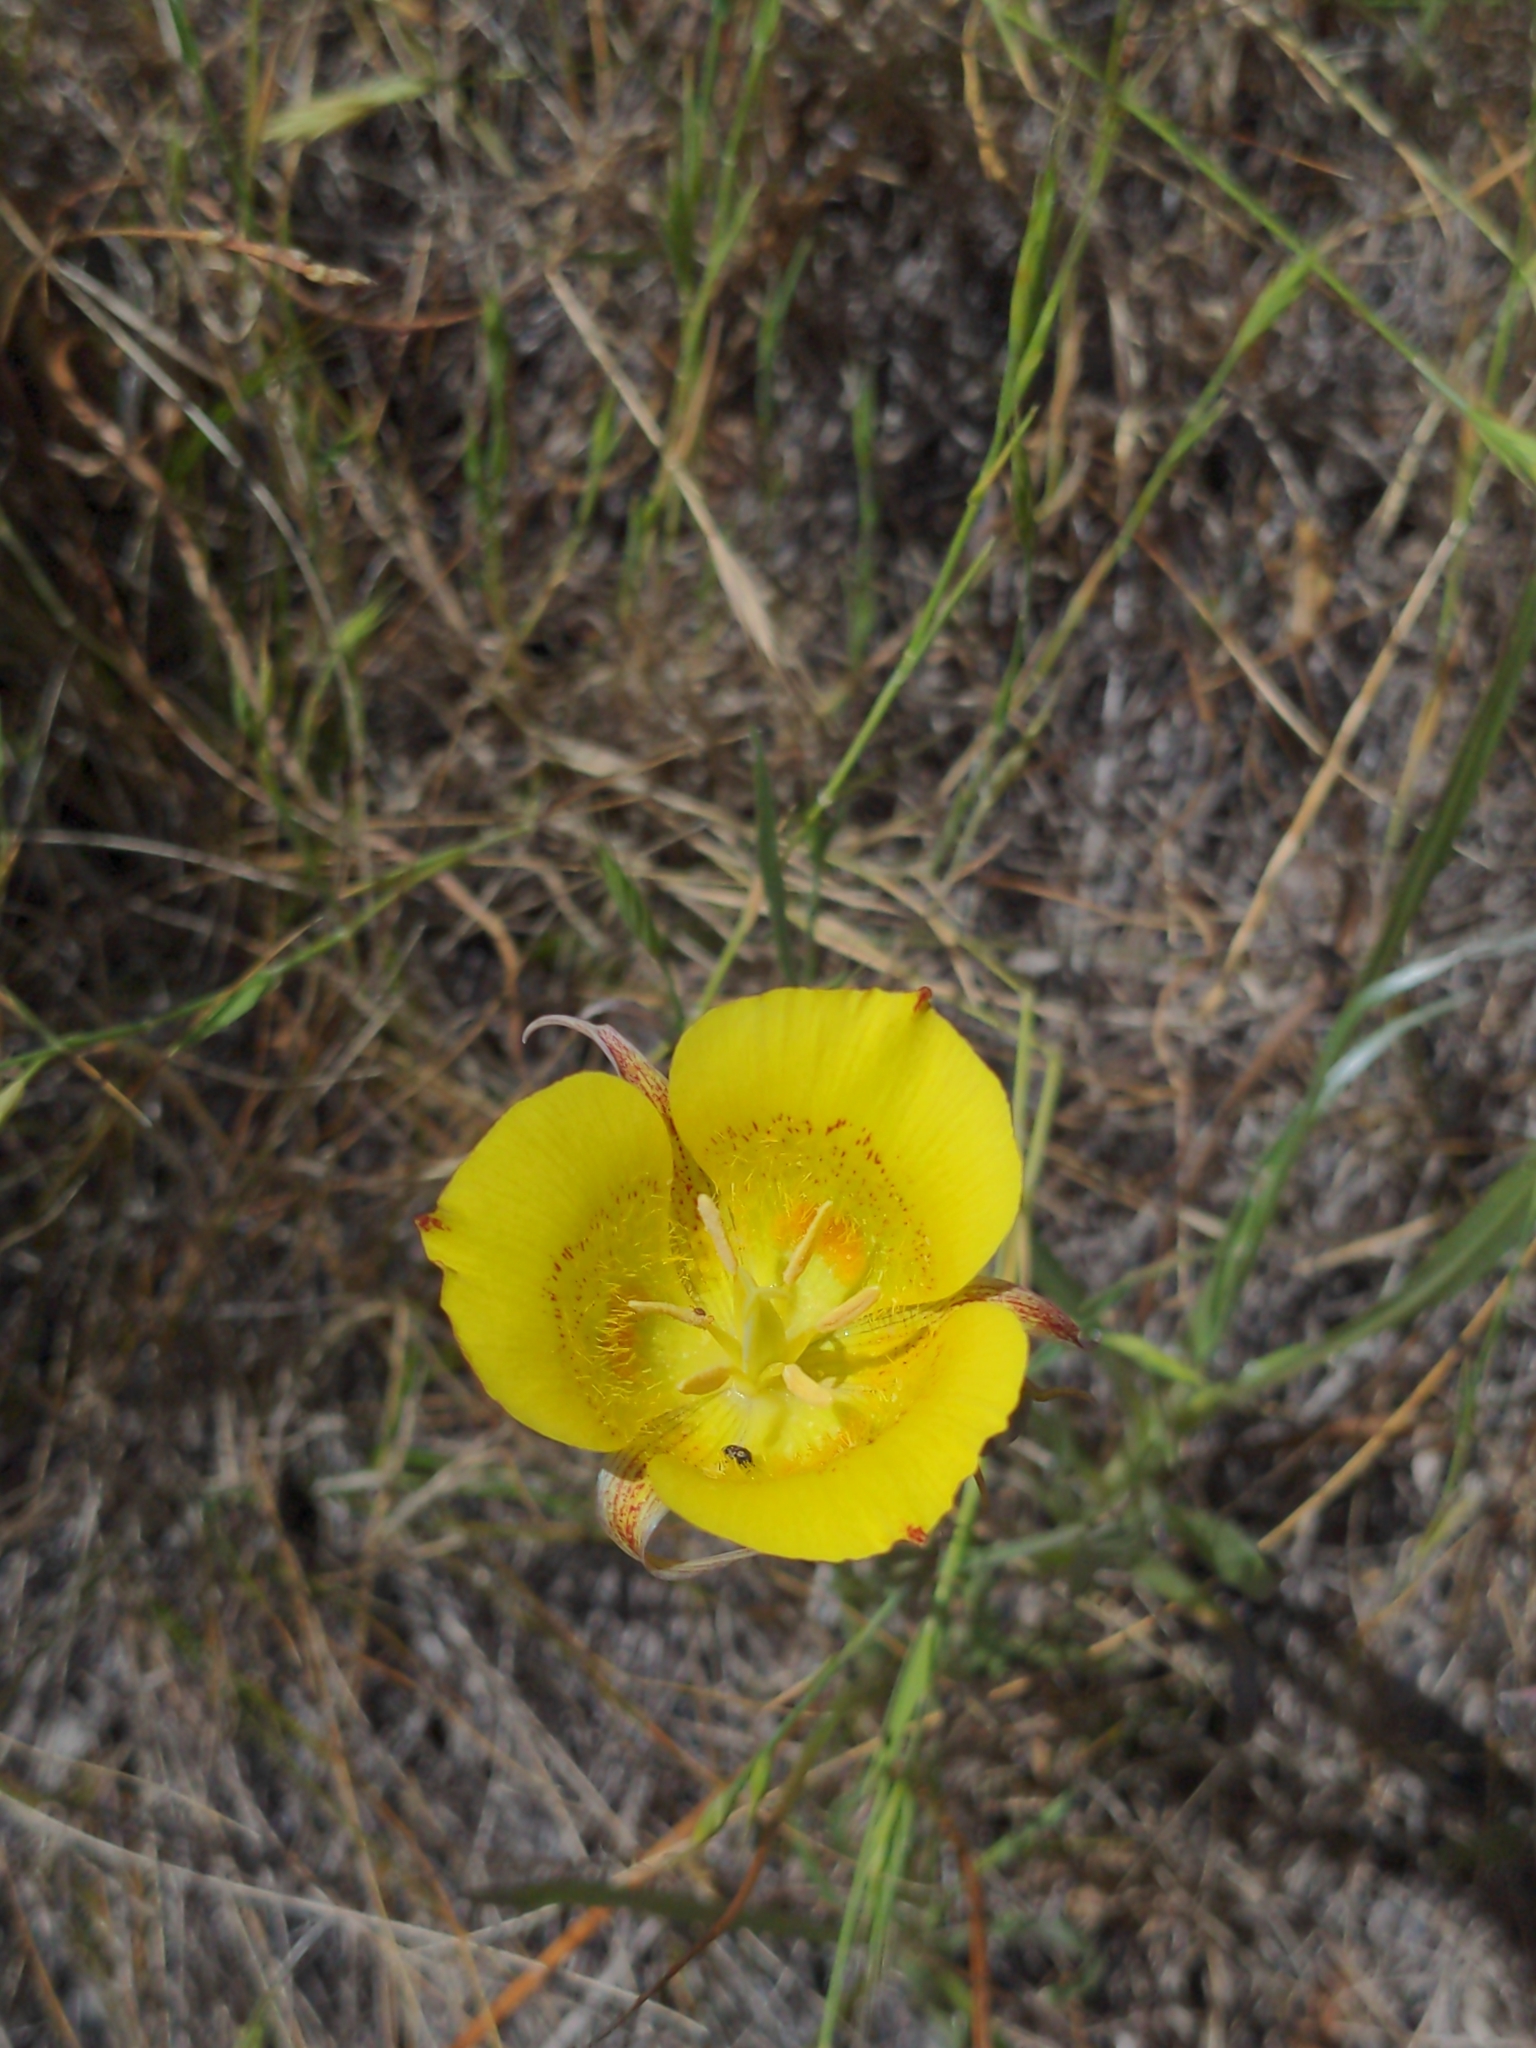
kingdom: Plantae
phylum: Tracheophyta
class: Liliopsida
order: Liliales
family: Liliaceae
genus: Calochortus
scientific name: Calochortus luteus
